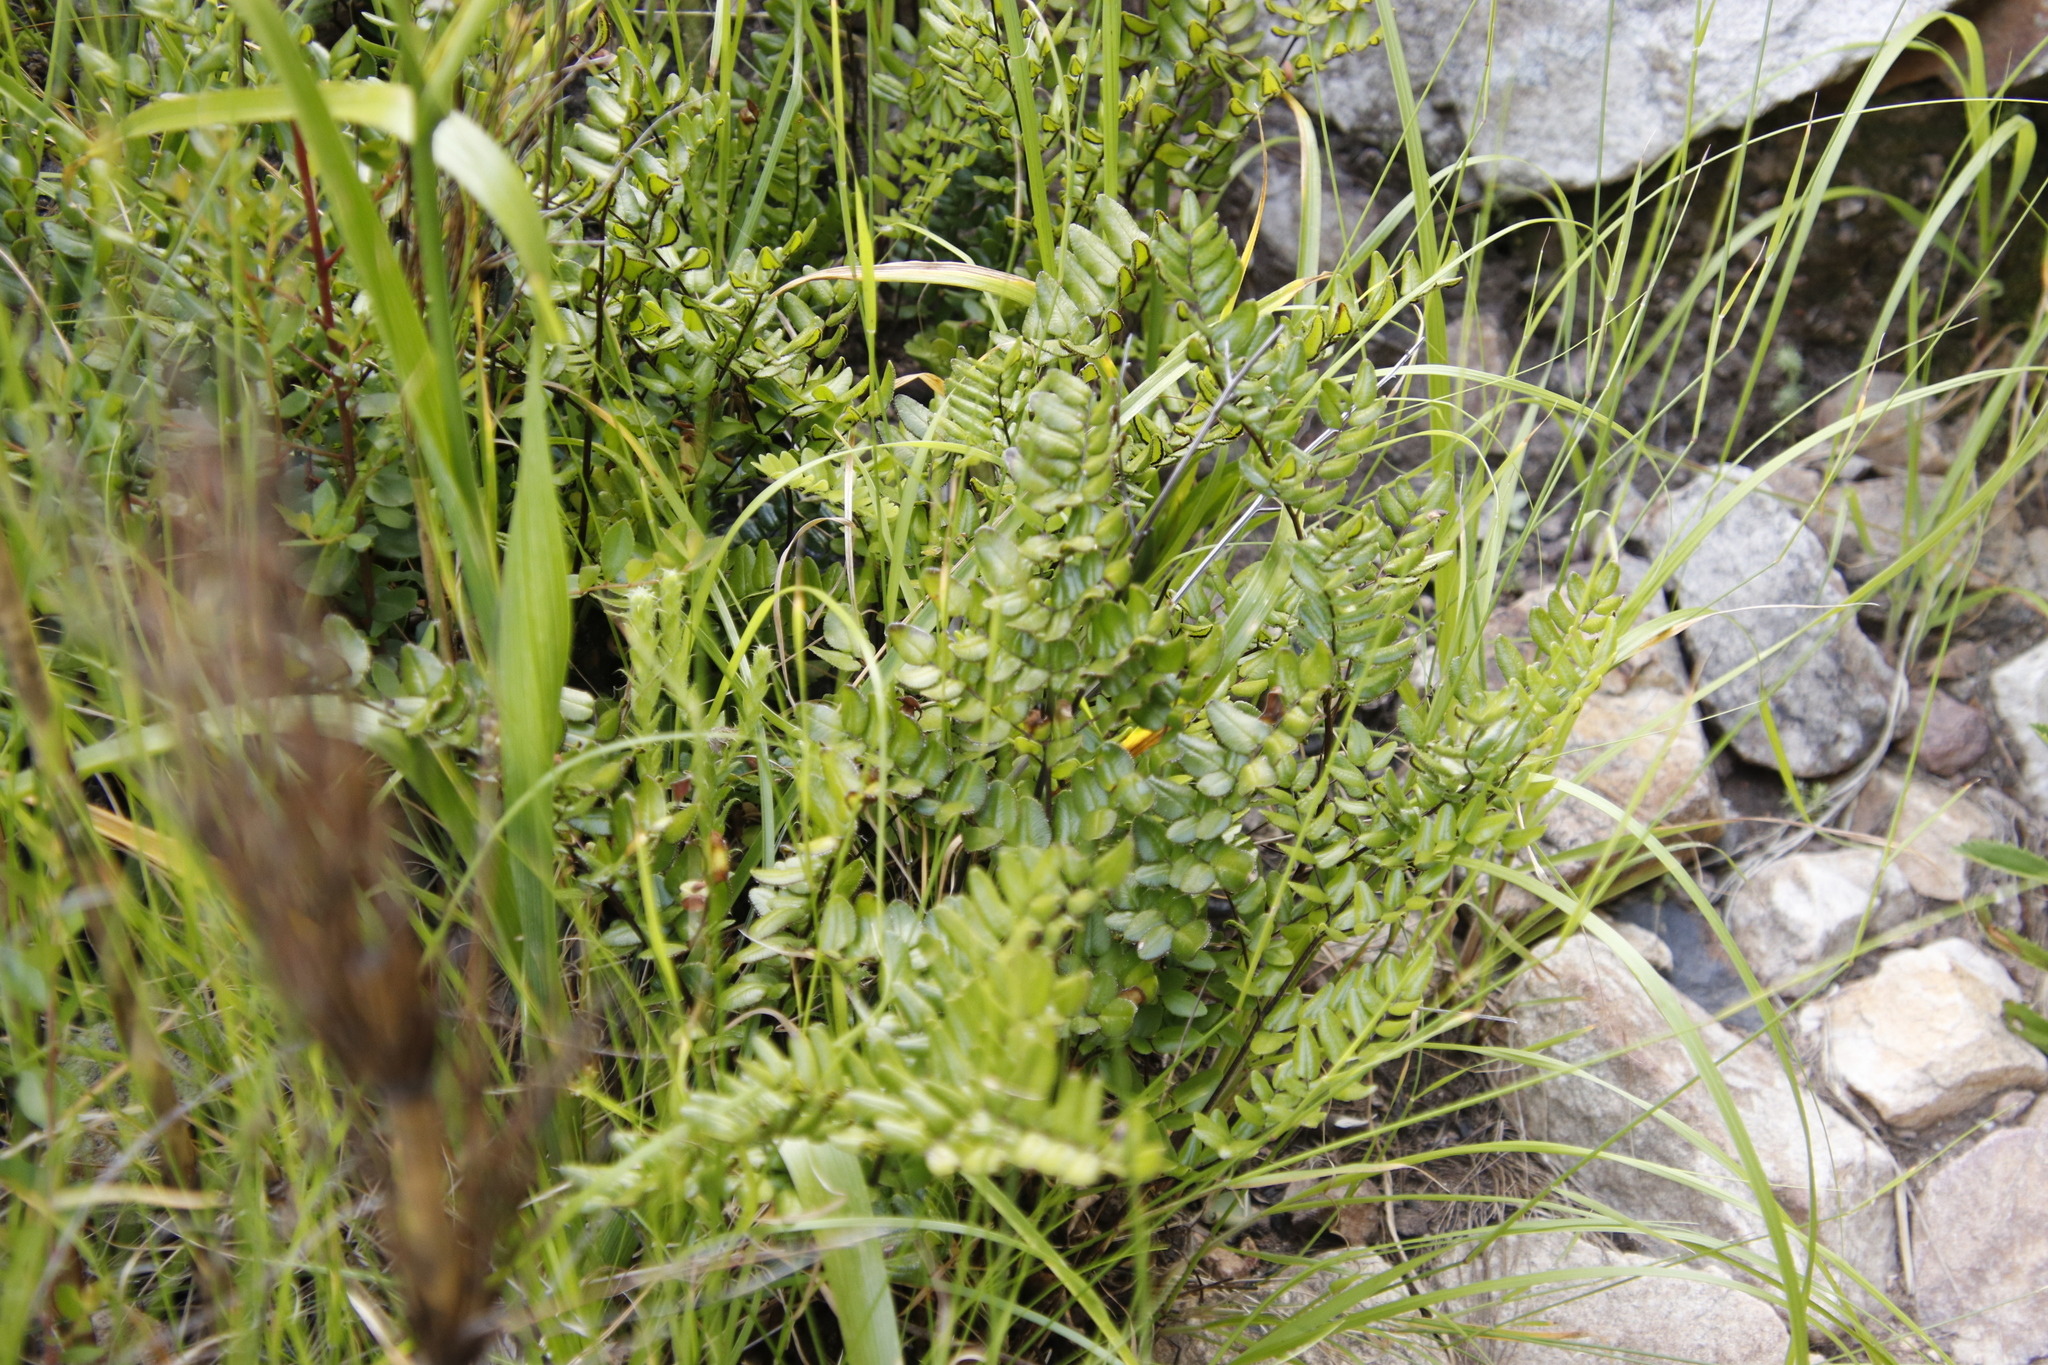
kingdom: Plantae
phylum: Tracheophyta
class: Polypodiopsida
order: Polypodiales
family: Pteridaceae
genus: Pellaea
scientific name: Pellaea pteroides
